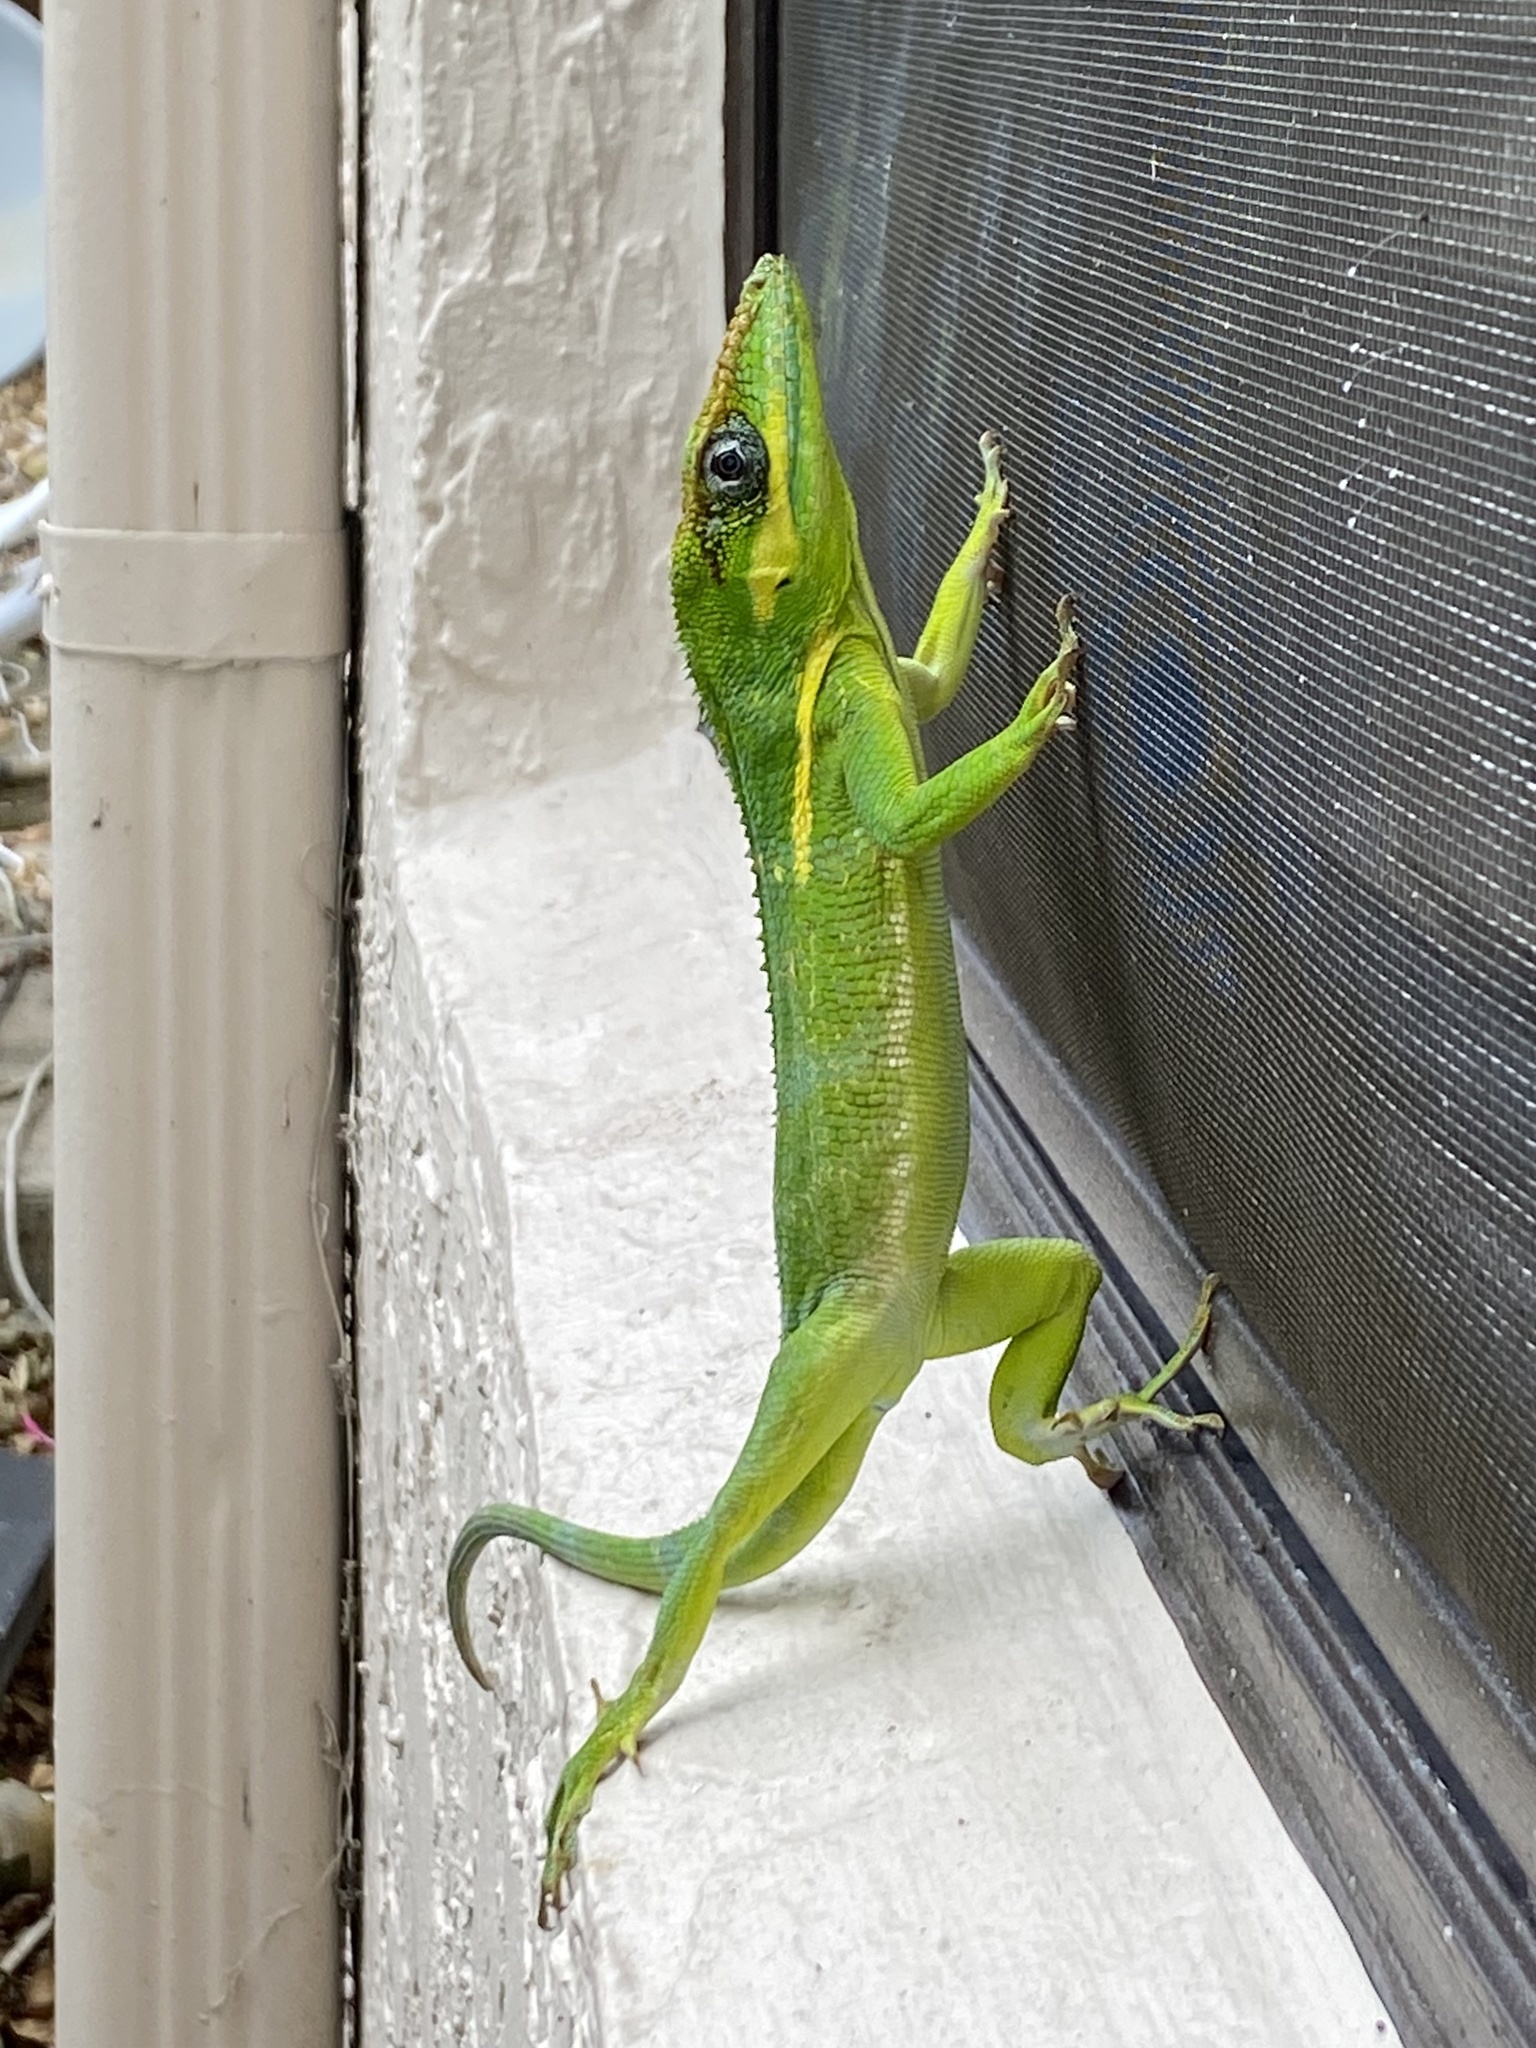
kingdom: Animalia
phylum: Chordata
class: Squamata
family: Dactyloidae
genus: Anolis
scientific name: Anolis equestris
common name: Knight anole
